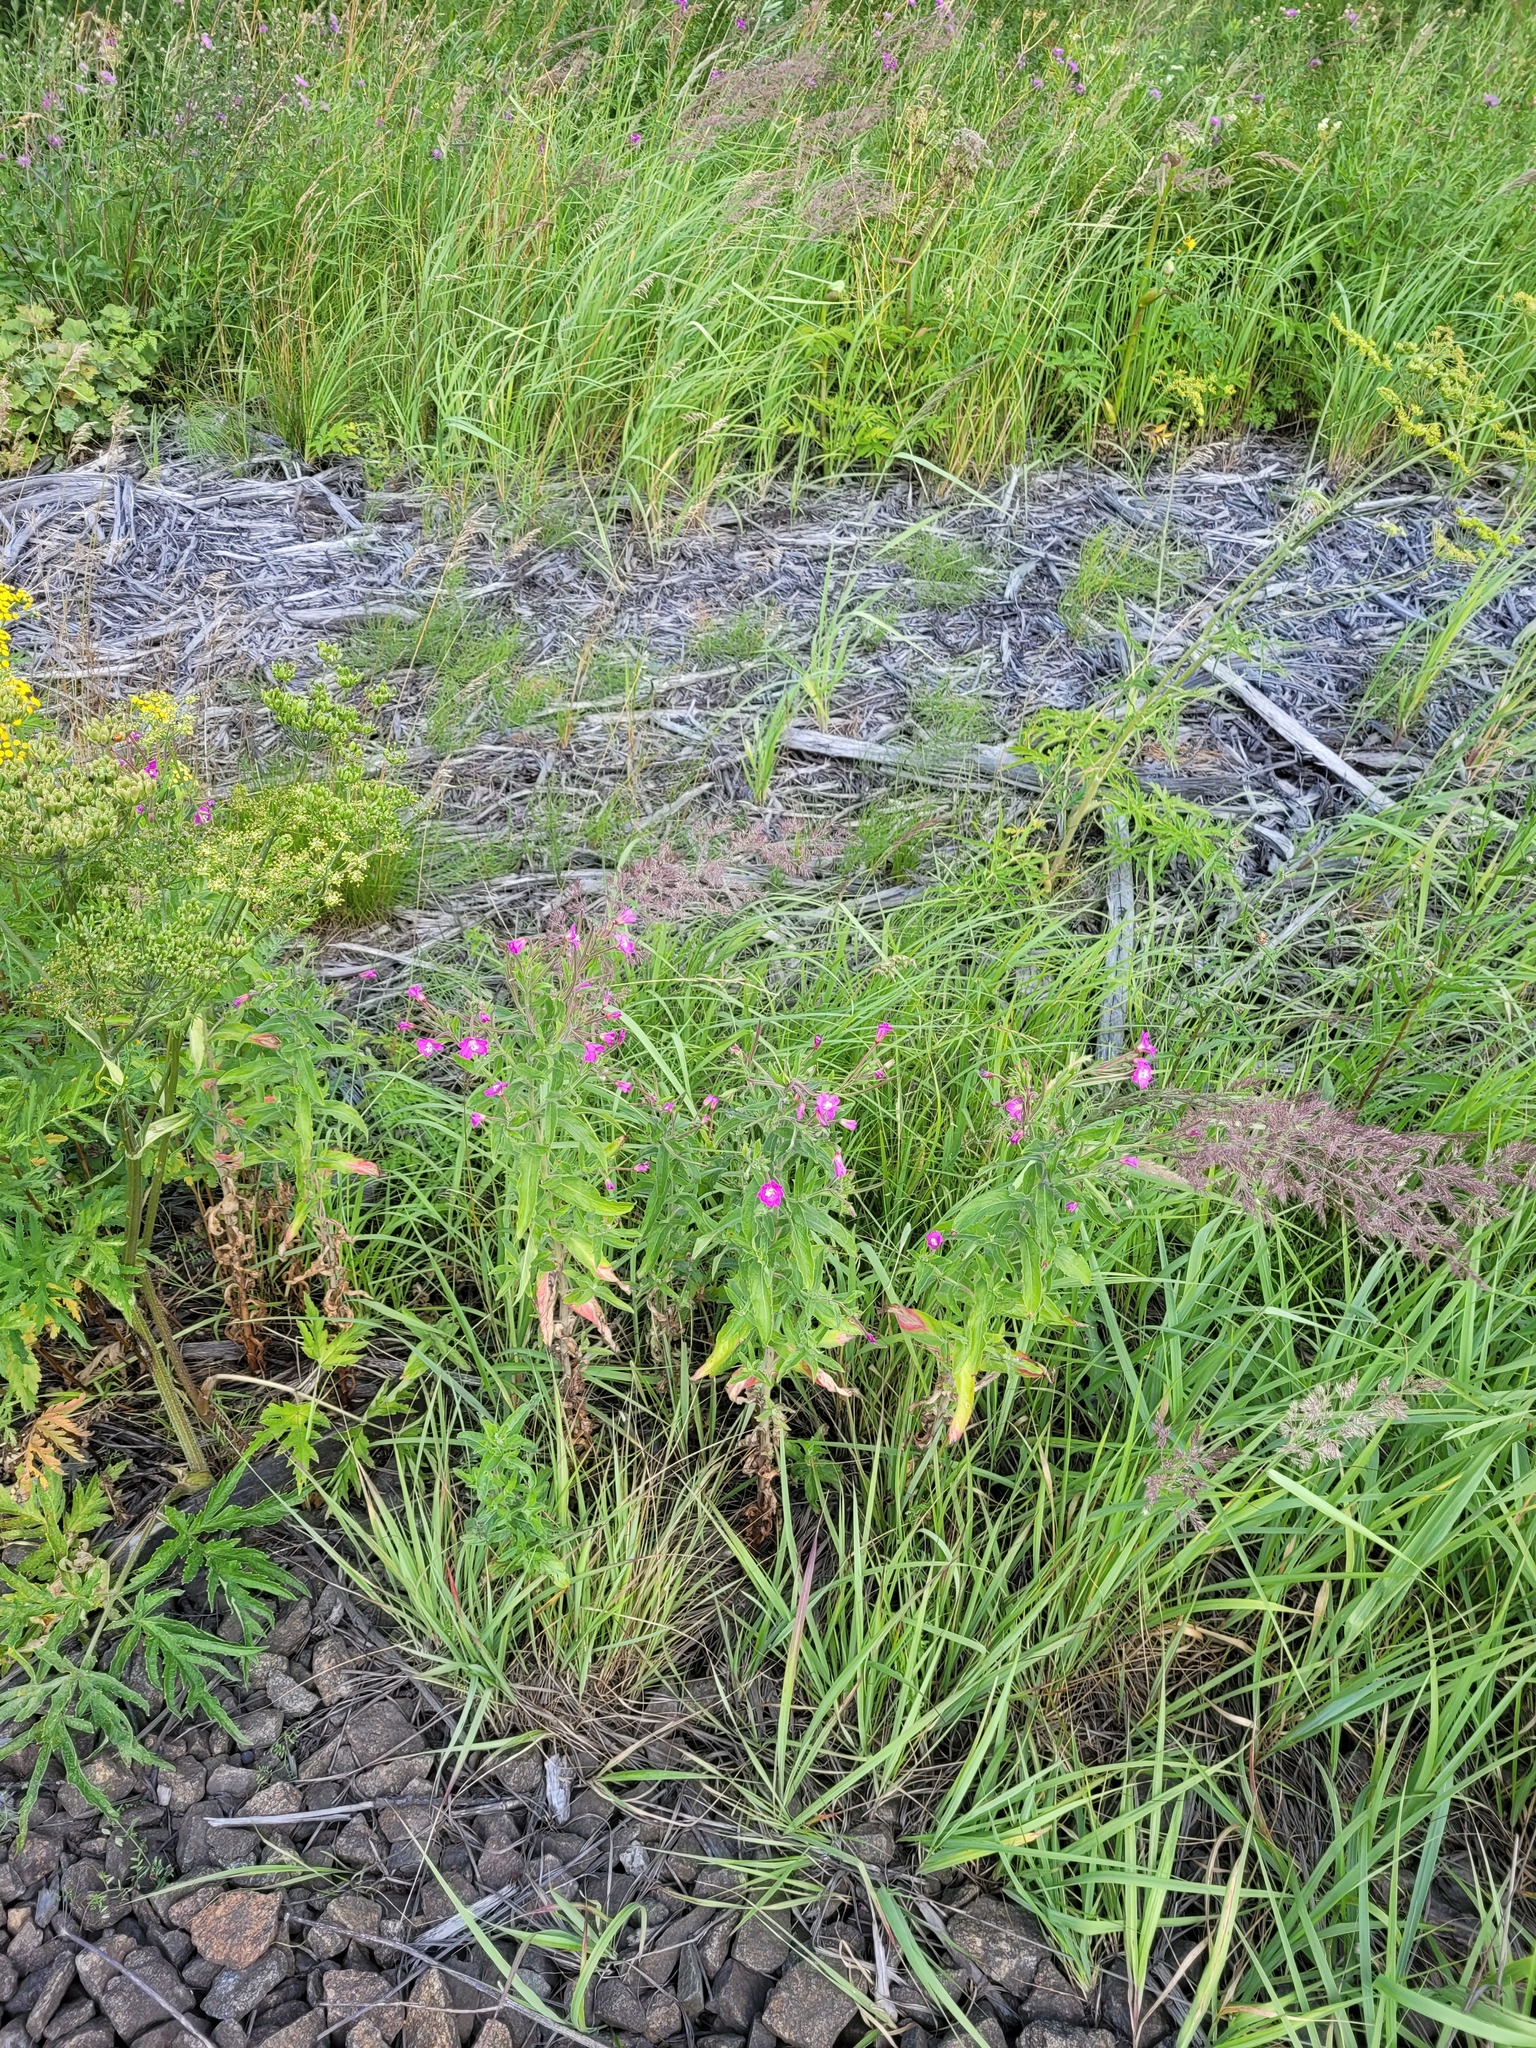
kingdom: Plantae
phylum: Tracheophyta
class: Magnoliopsida
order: Myrtales
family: Onagraceae
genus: Epilobium
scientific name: Epilobium hirsutum
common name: Great willowherb
